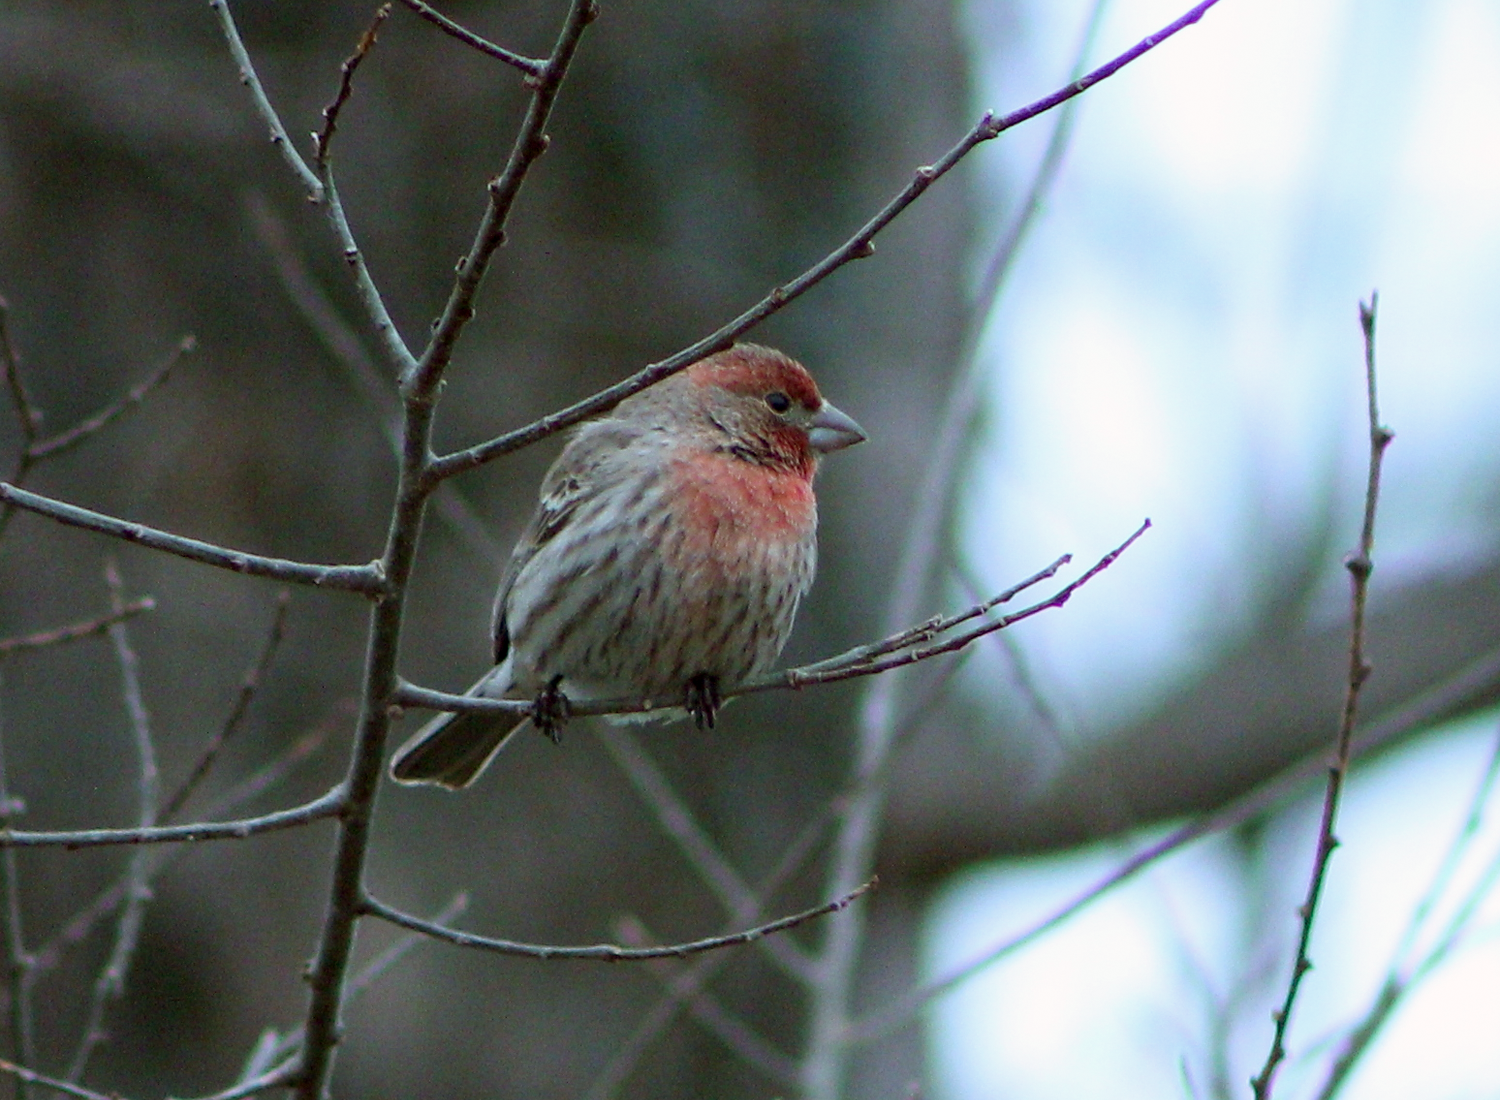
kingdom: Animalia
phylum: Chordata
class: Aves
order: Passeriformes
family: Fringillidae
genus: Haemorhous
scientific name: Haemorhous mexicanus
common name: House finch
